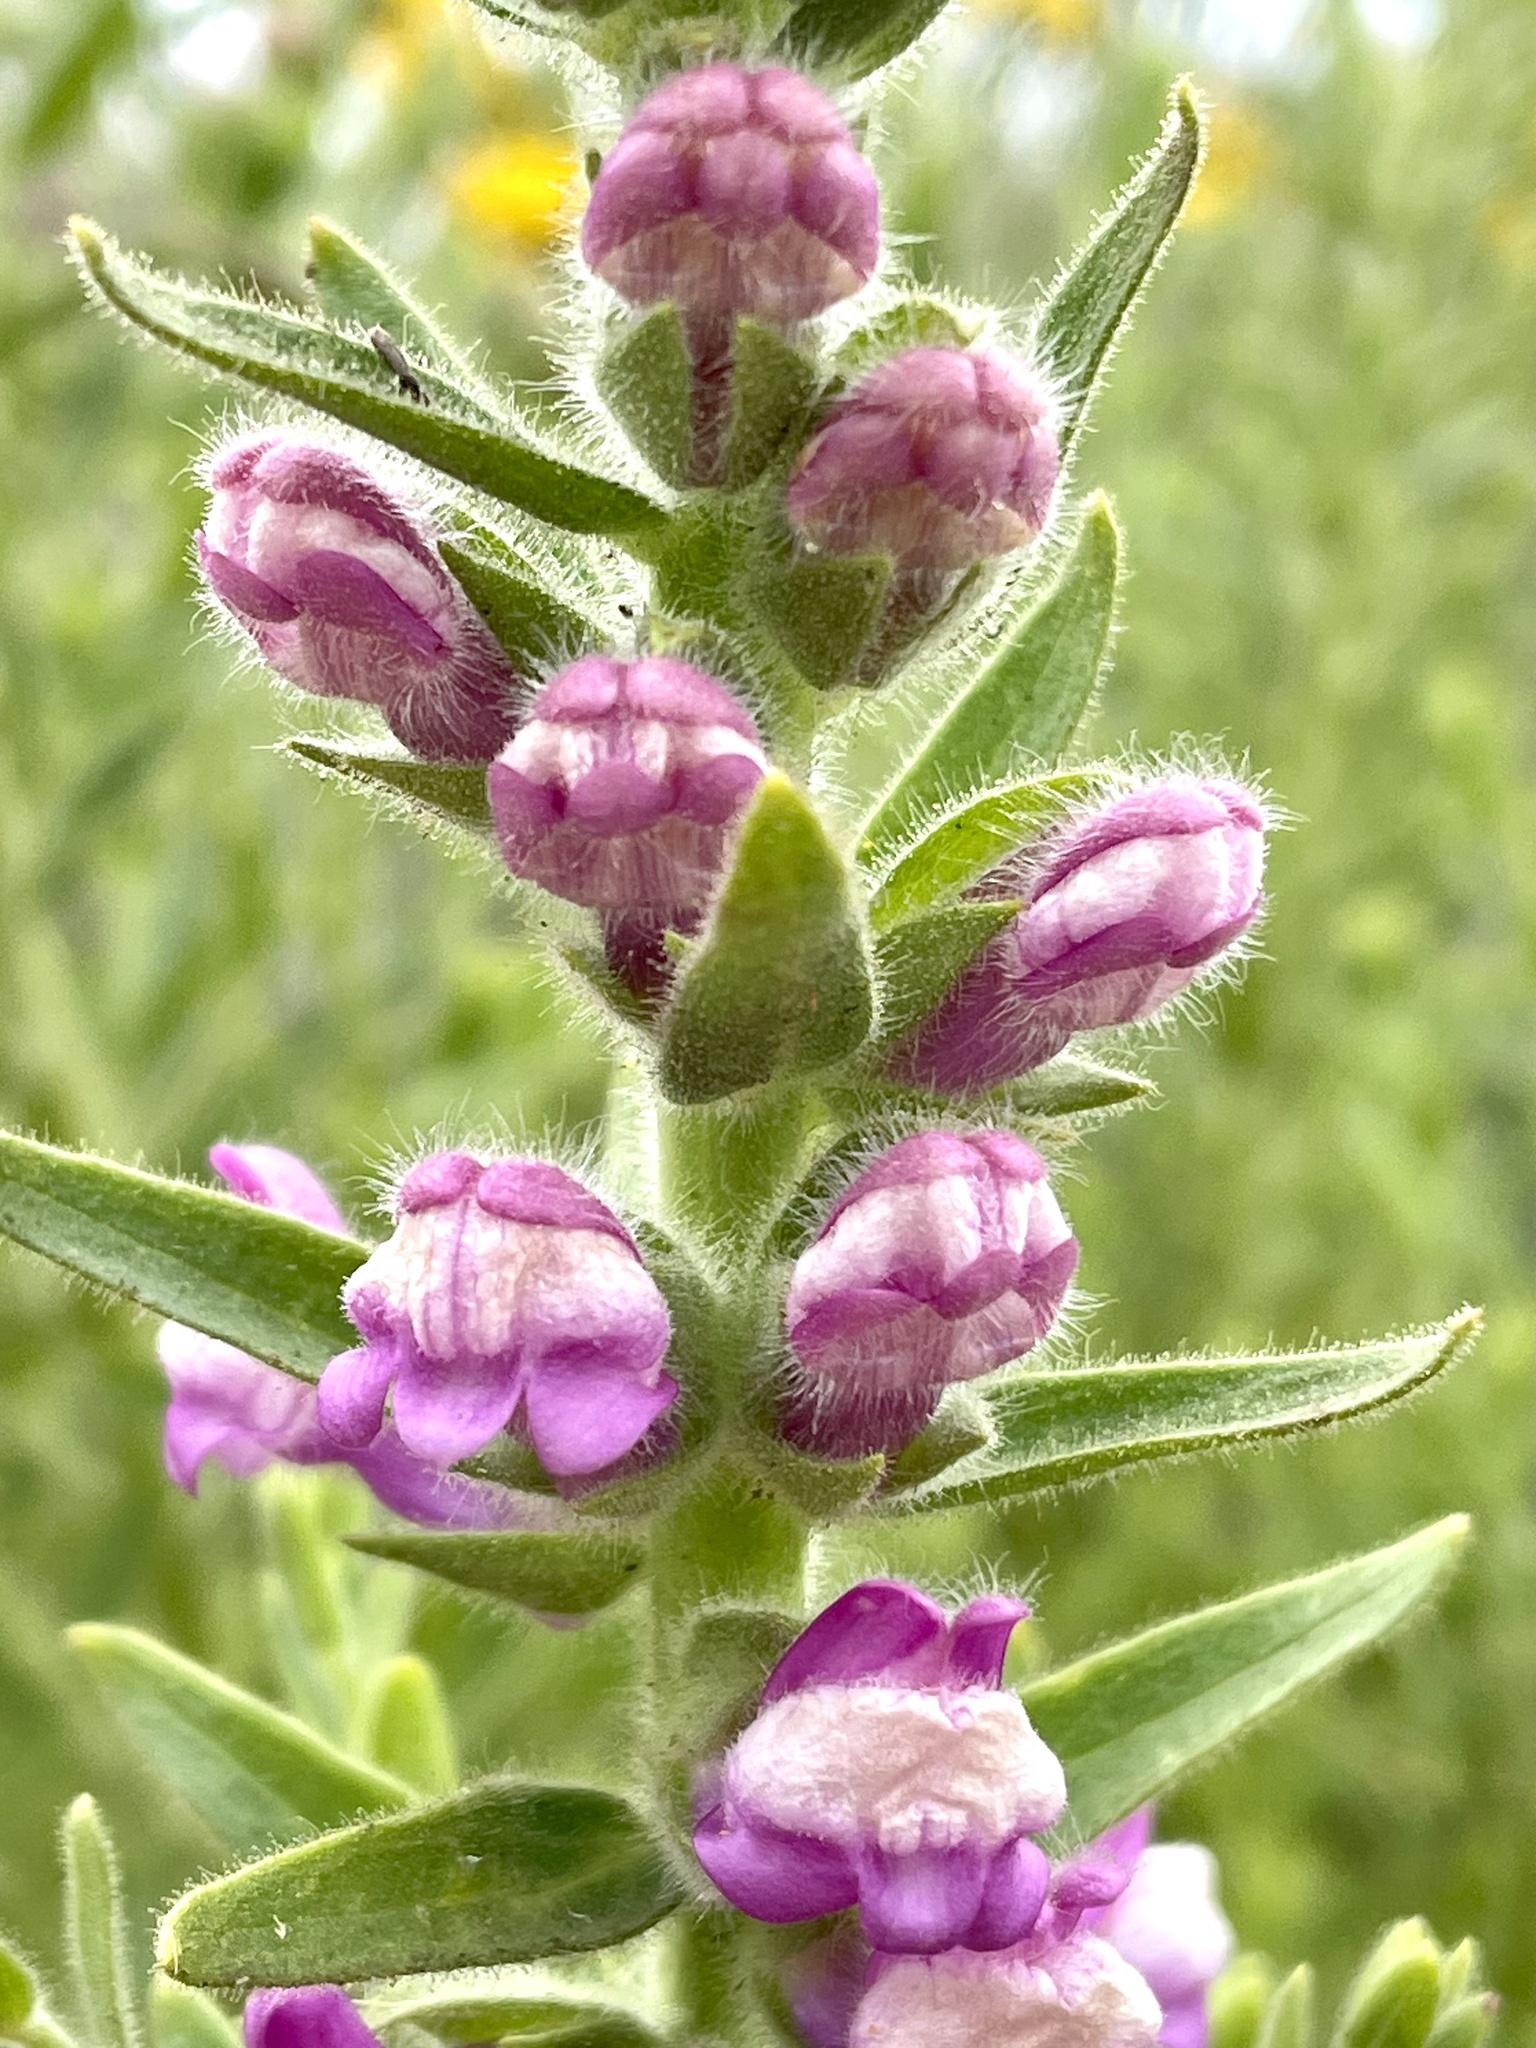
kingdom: Plantae
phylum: Tracheophyta
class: Magnoliopsida
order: Lamiales
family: Plantaginaceae
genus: Sairocarpus
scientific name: Sairocarpus multiflorus
